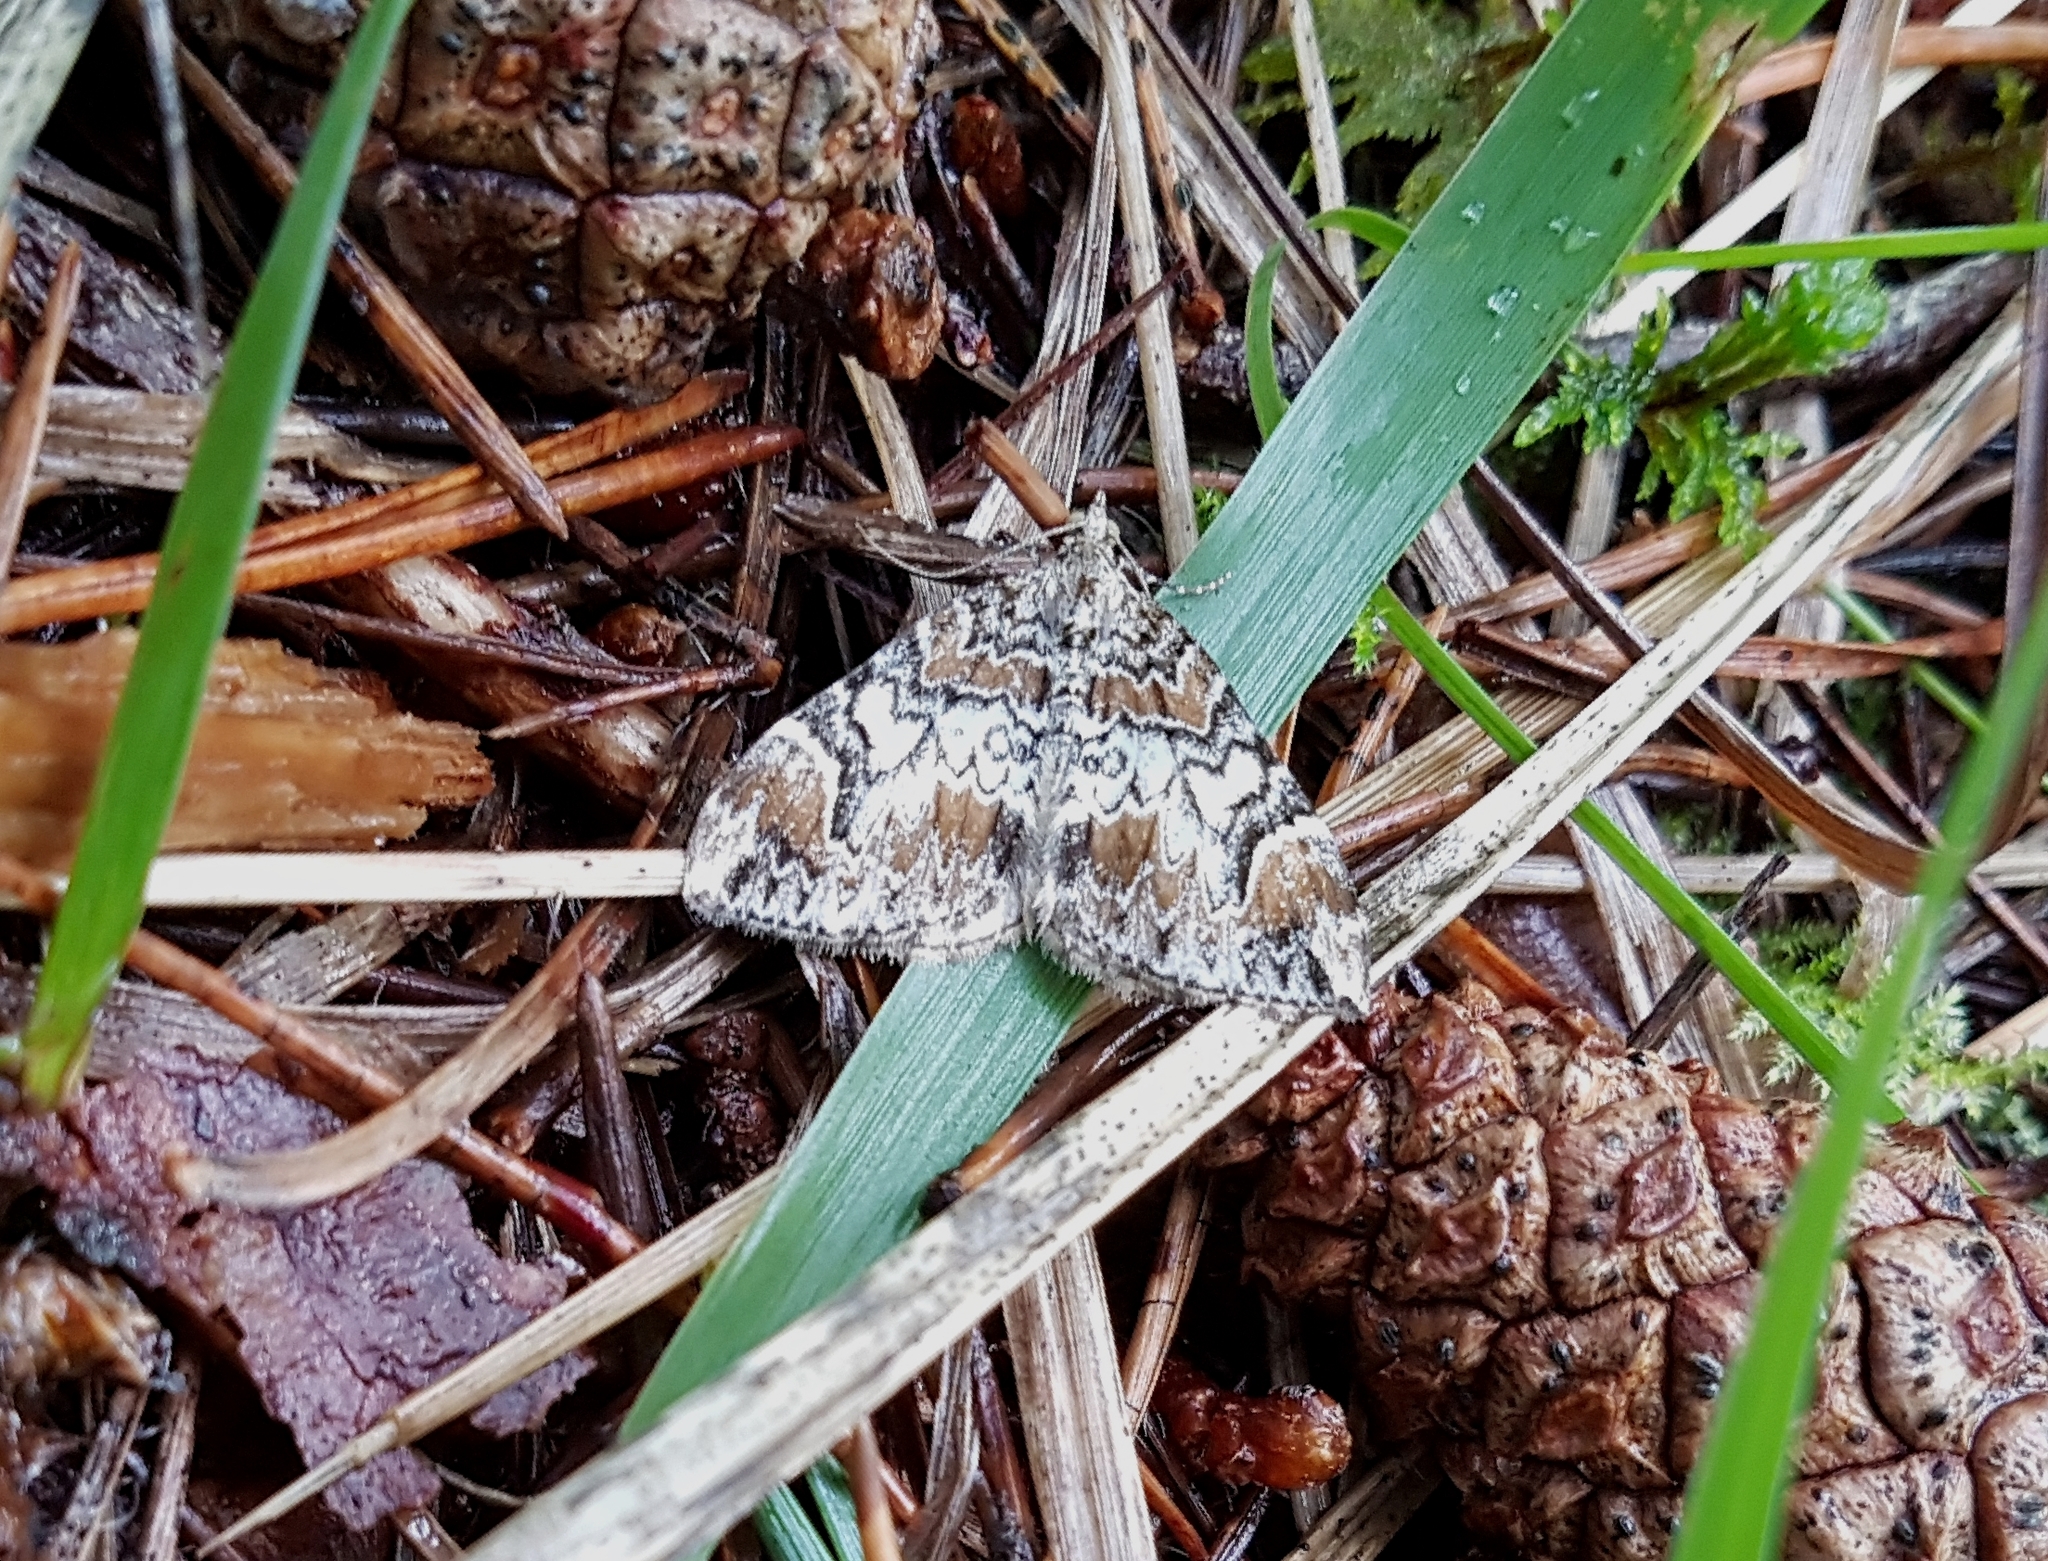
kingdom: Animalia
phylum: Arthropoda
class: Insecta
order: Lepidoptera
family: Geometridae
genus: Dysstroma
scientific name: Dysstroma citrata
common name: Dark marbled carpet
